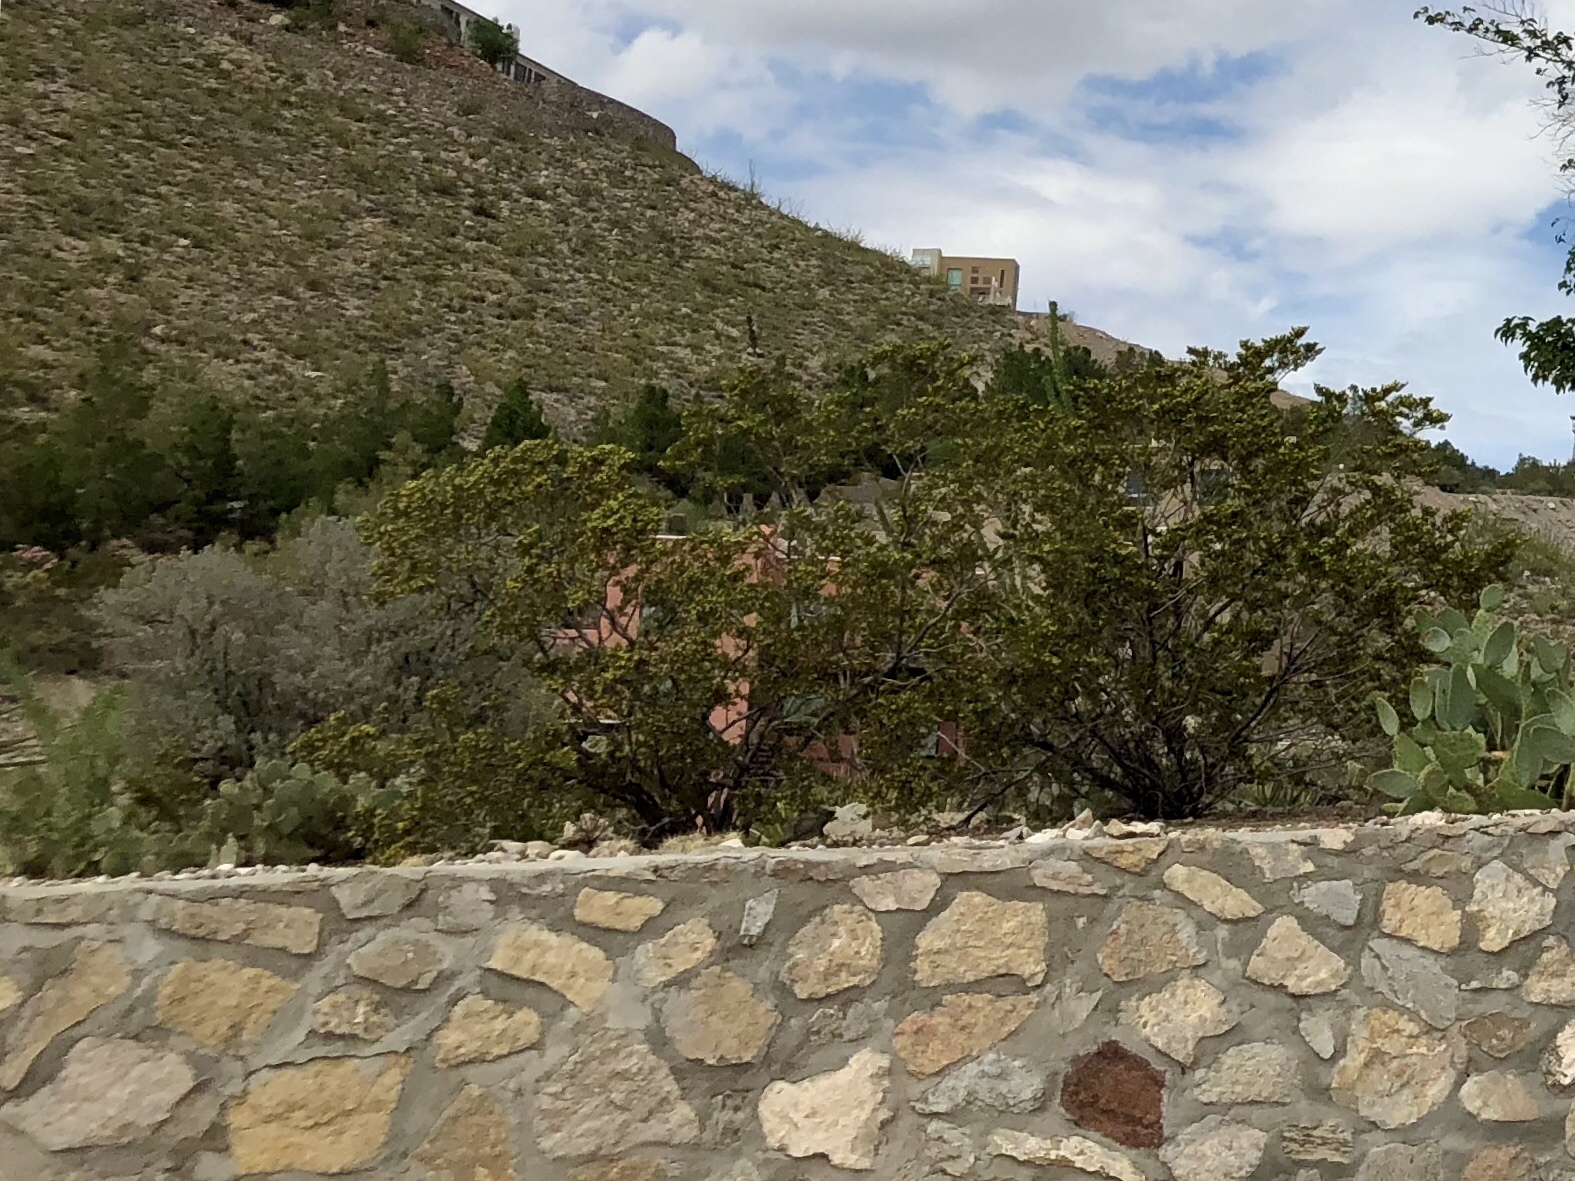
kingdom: Plantae
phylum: Tracheophyta
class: Magnoliopsida
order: Zygophyllales
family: Zygophyllaceae
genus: Larrea
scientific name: Larrea tridentata
